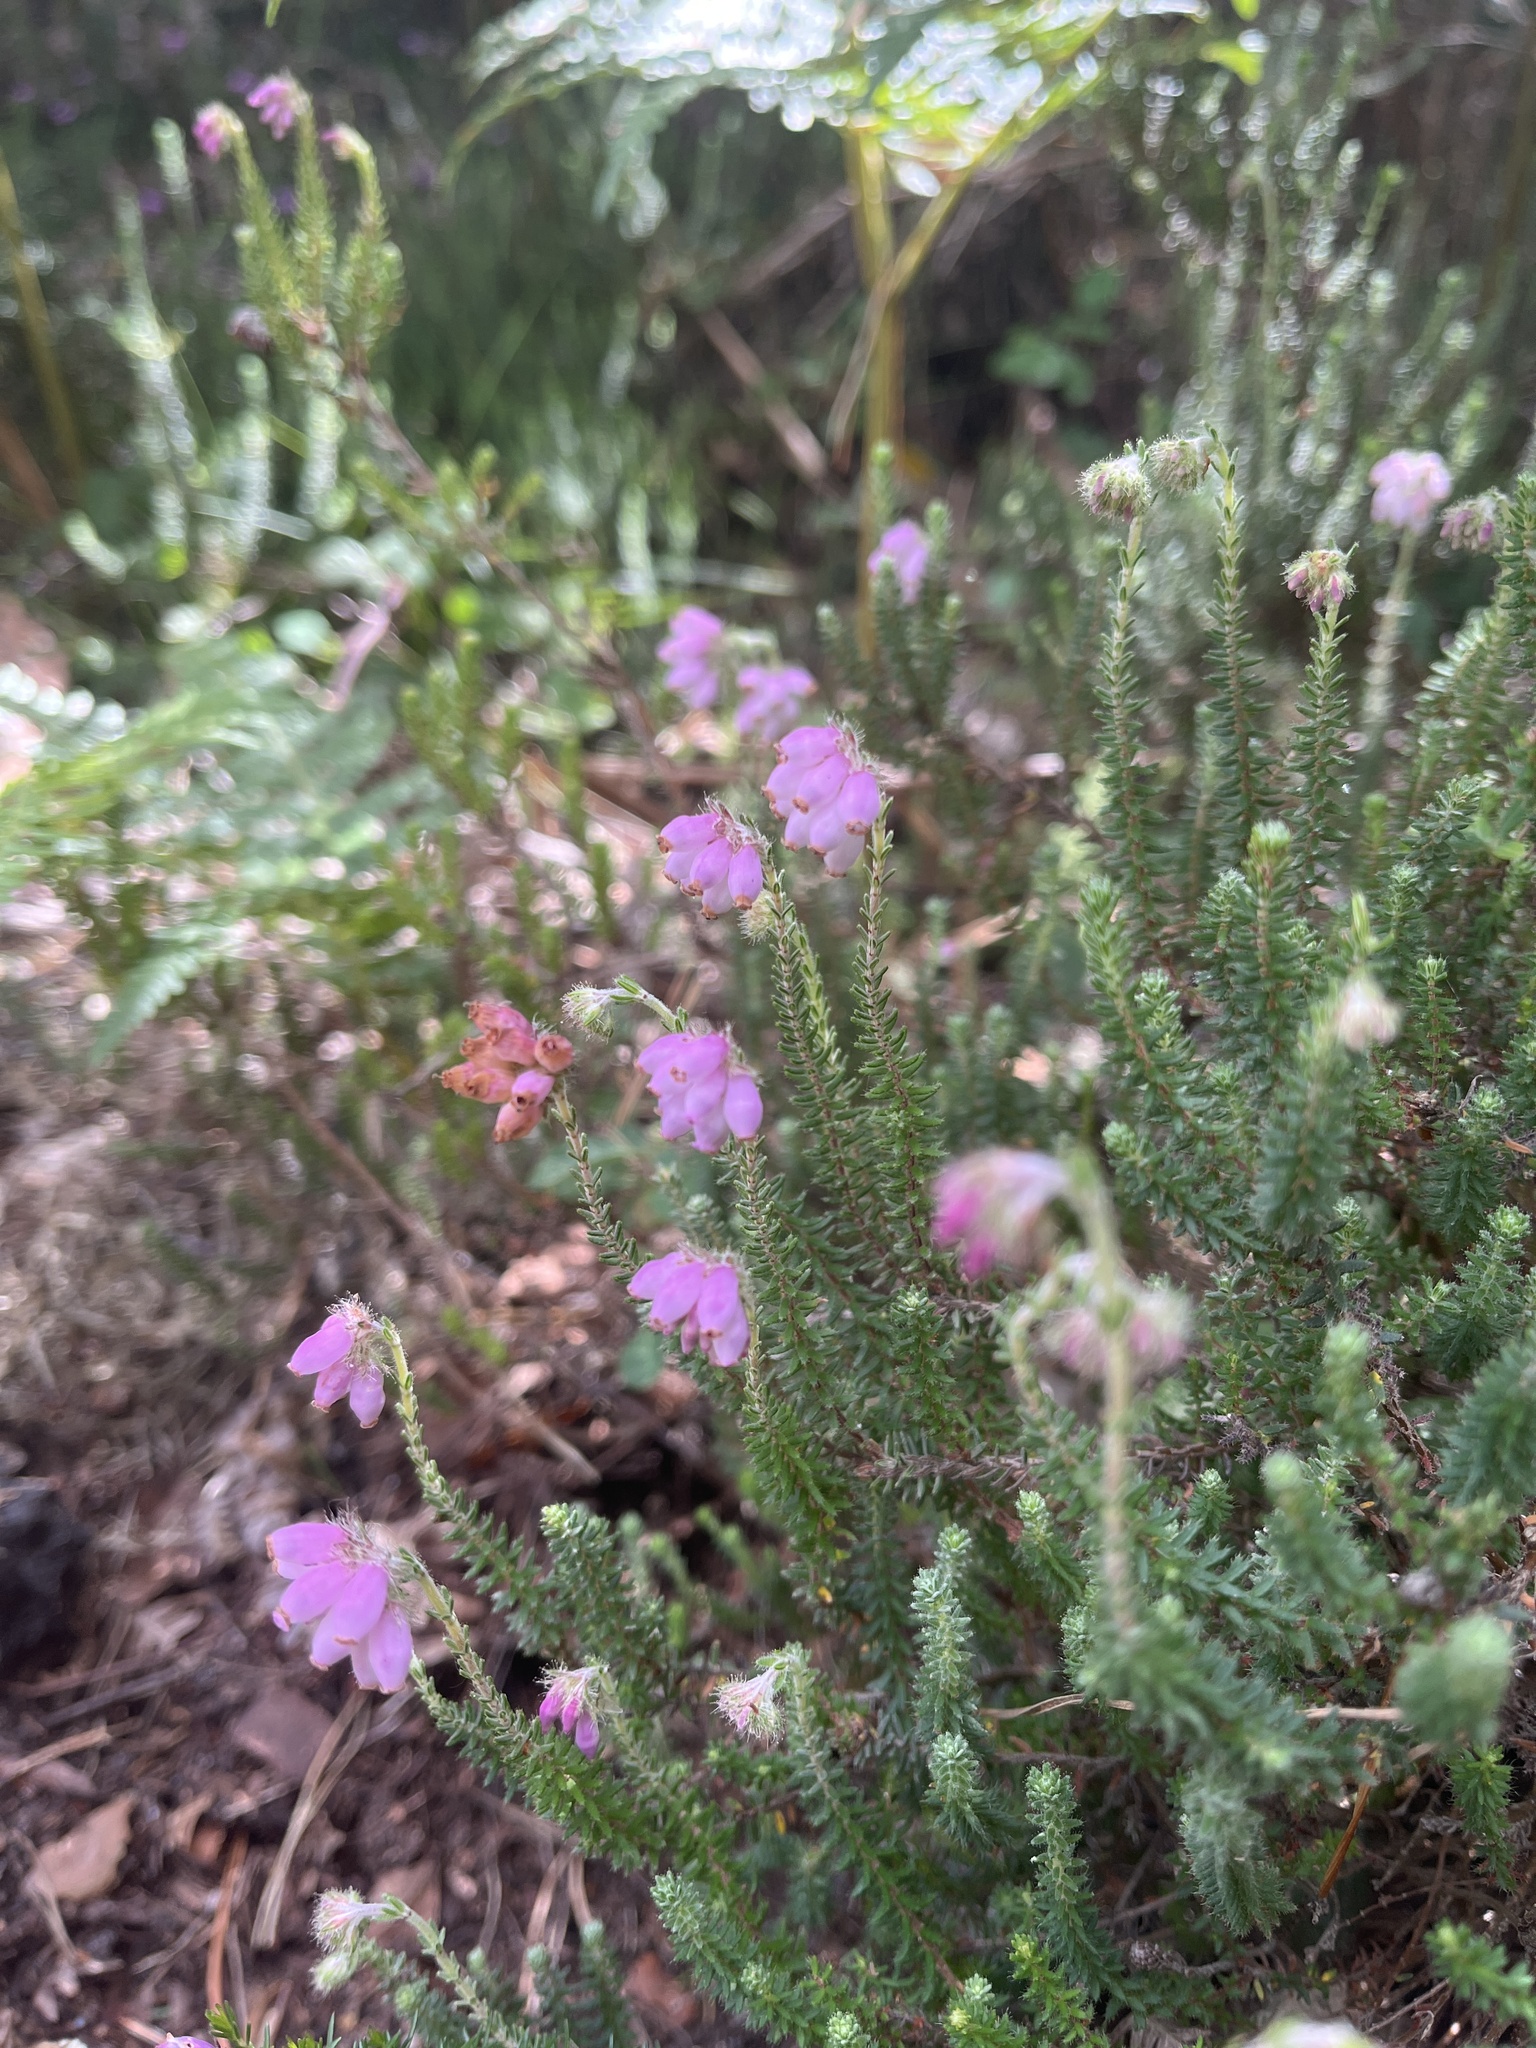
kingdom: Plantae
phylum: Tracheophyta
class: Magnoliopsida
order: Ericales
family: Ericaceae
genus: Erica
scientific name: Erica tetralix
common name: Cross-leaved heath
